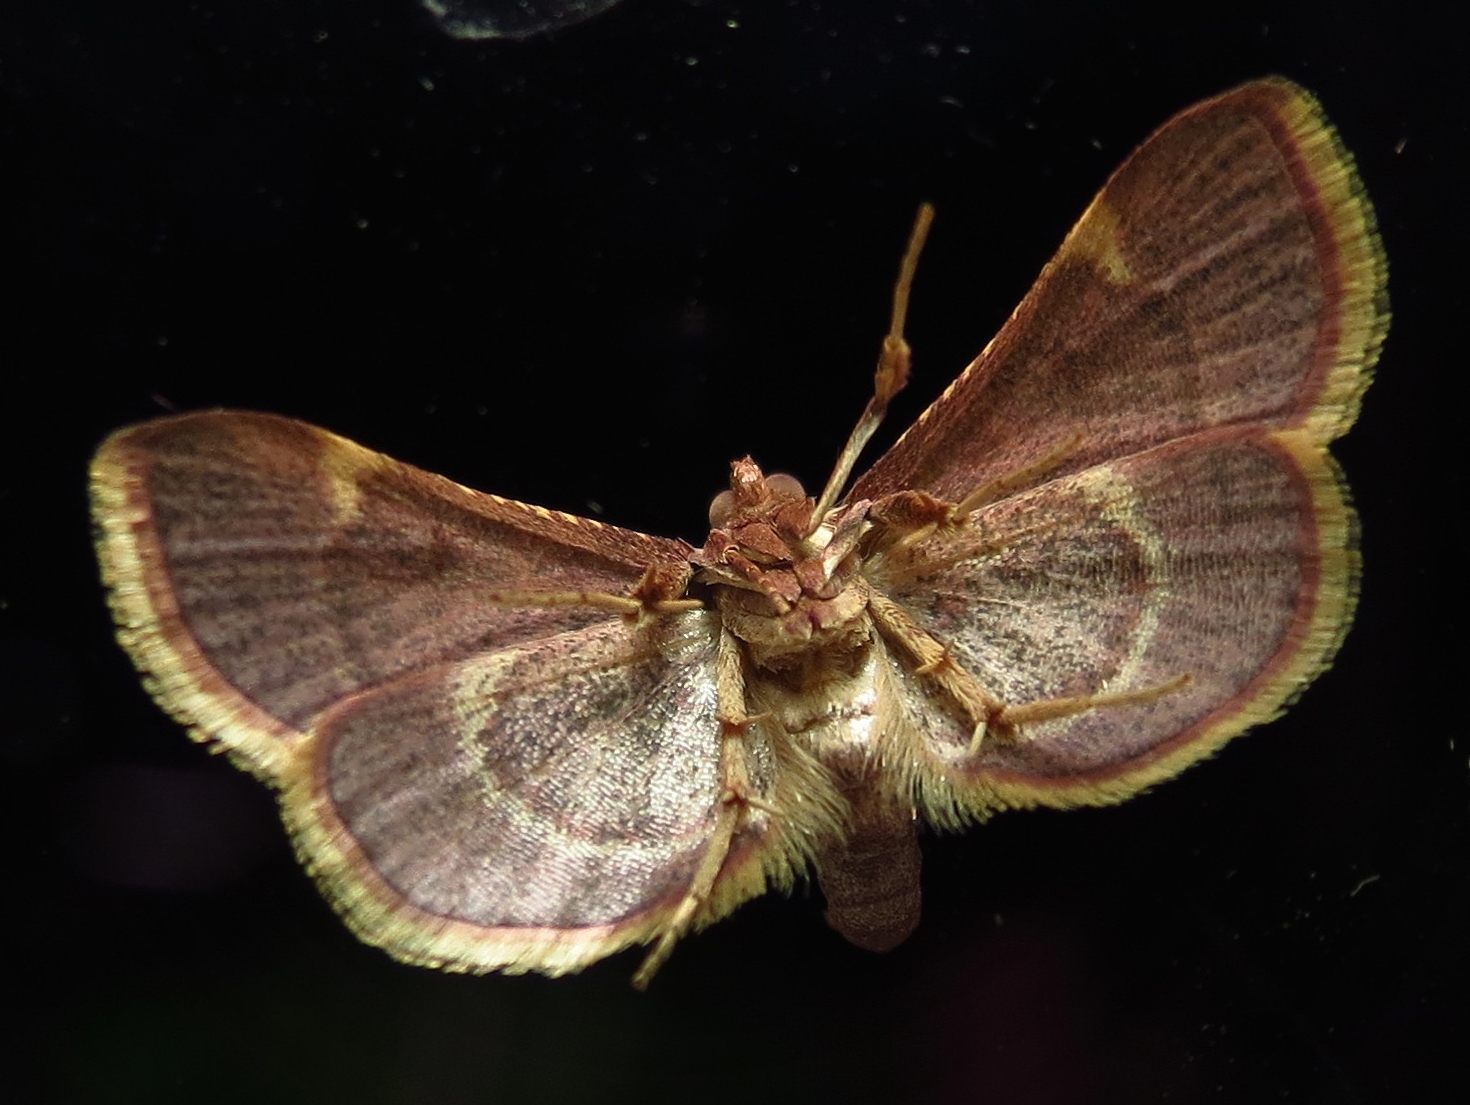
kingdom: Animalia
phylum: Arthropoda
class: Insecta
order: Lepidoptera
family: Pyralidae
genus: Hypsopygia
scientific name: Hypsopygia olinalis
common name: Yellow-fringed dolichomia moth
